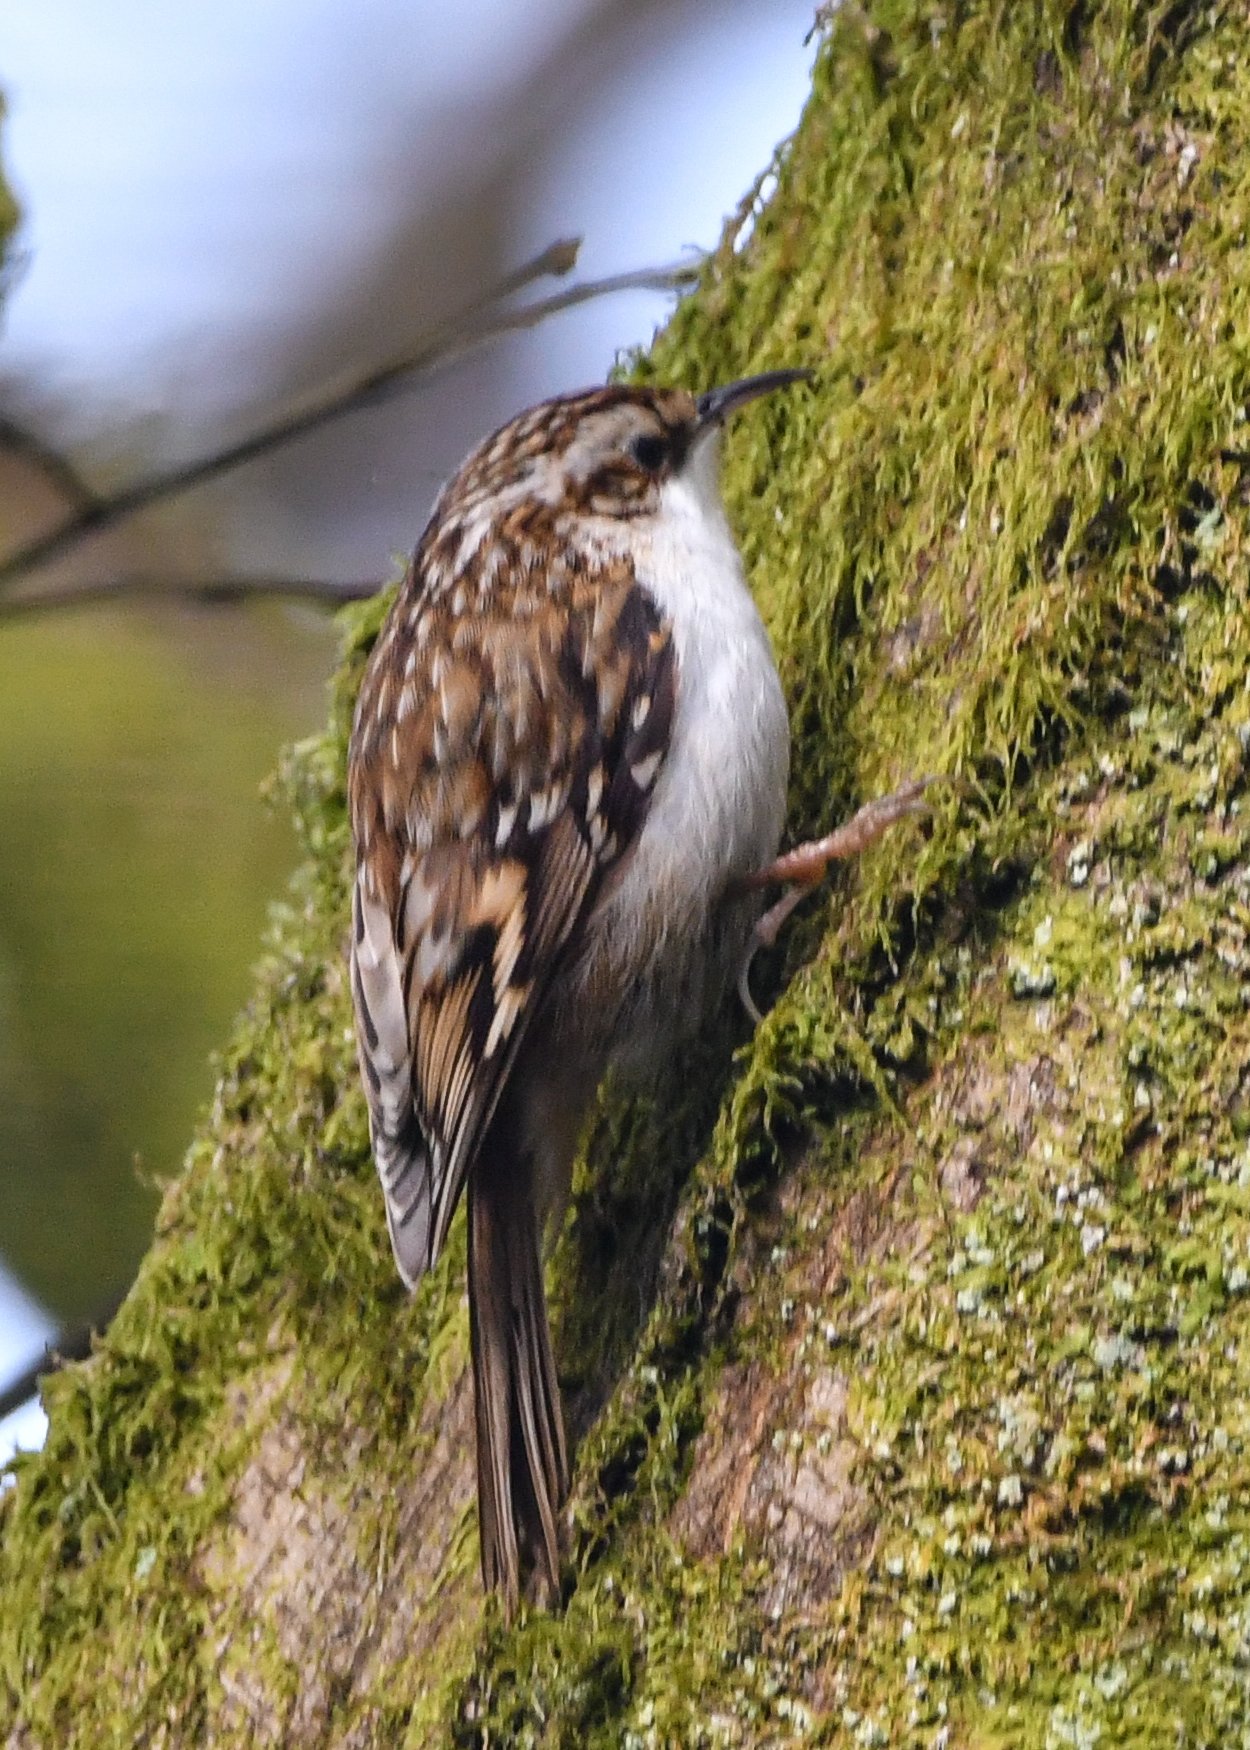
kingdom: Animalia
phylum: Chordata
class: Aves
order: Passeriformes
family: Certhiidae
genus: Certhia
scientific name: Certhia familiaris
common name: Eurasian treecreeper
